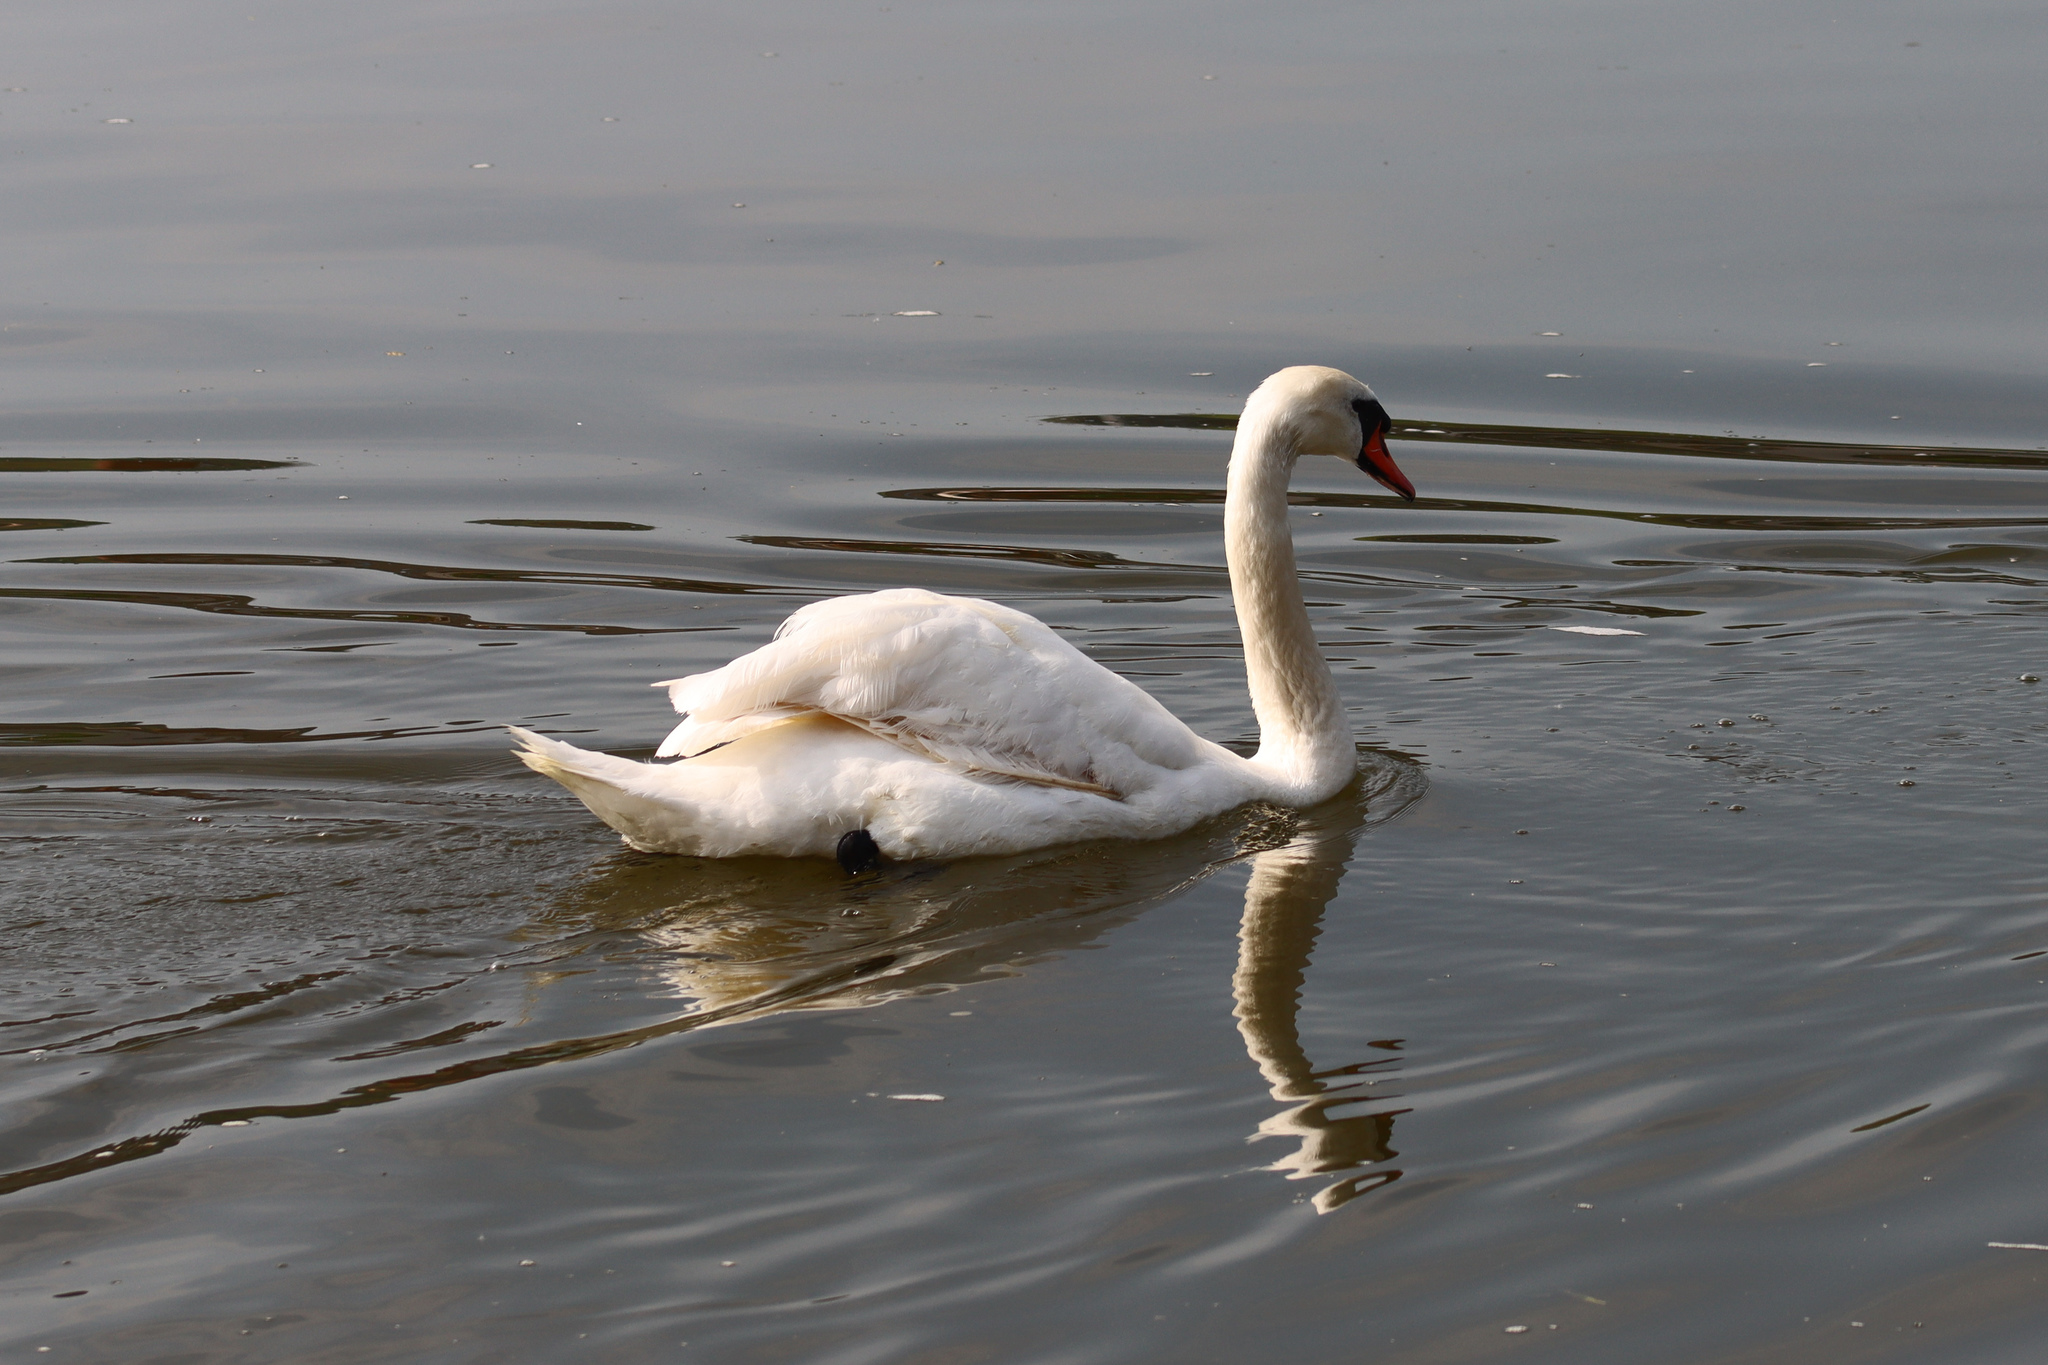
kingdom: Animalia
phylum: Chordata
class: Aves
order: Anseriformes
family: Anatidae
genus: Cygnus
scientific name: Cygnus olor
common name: Mute swan
